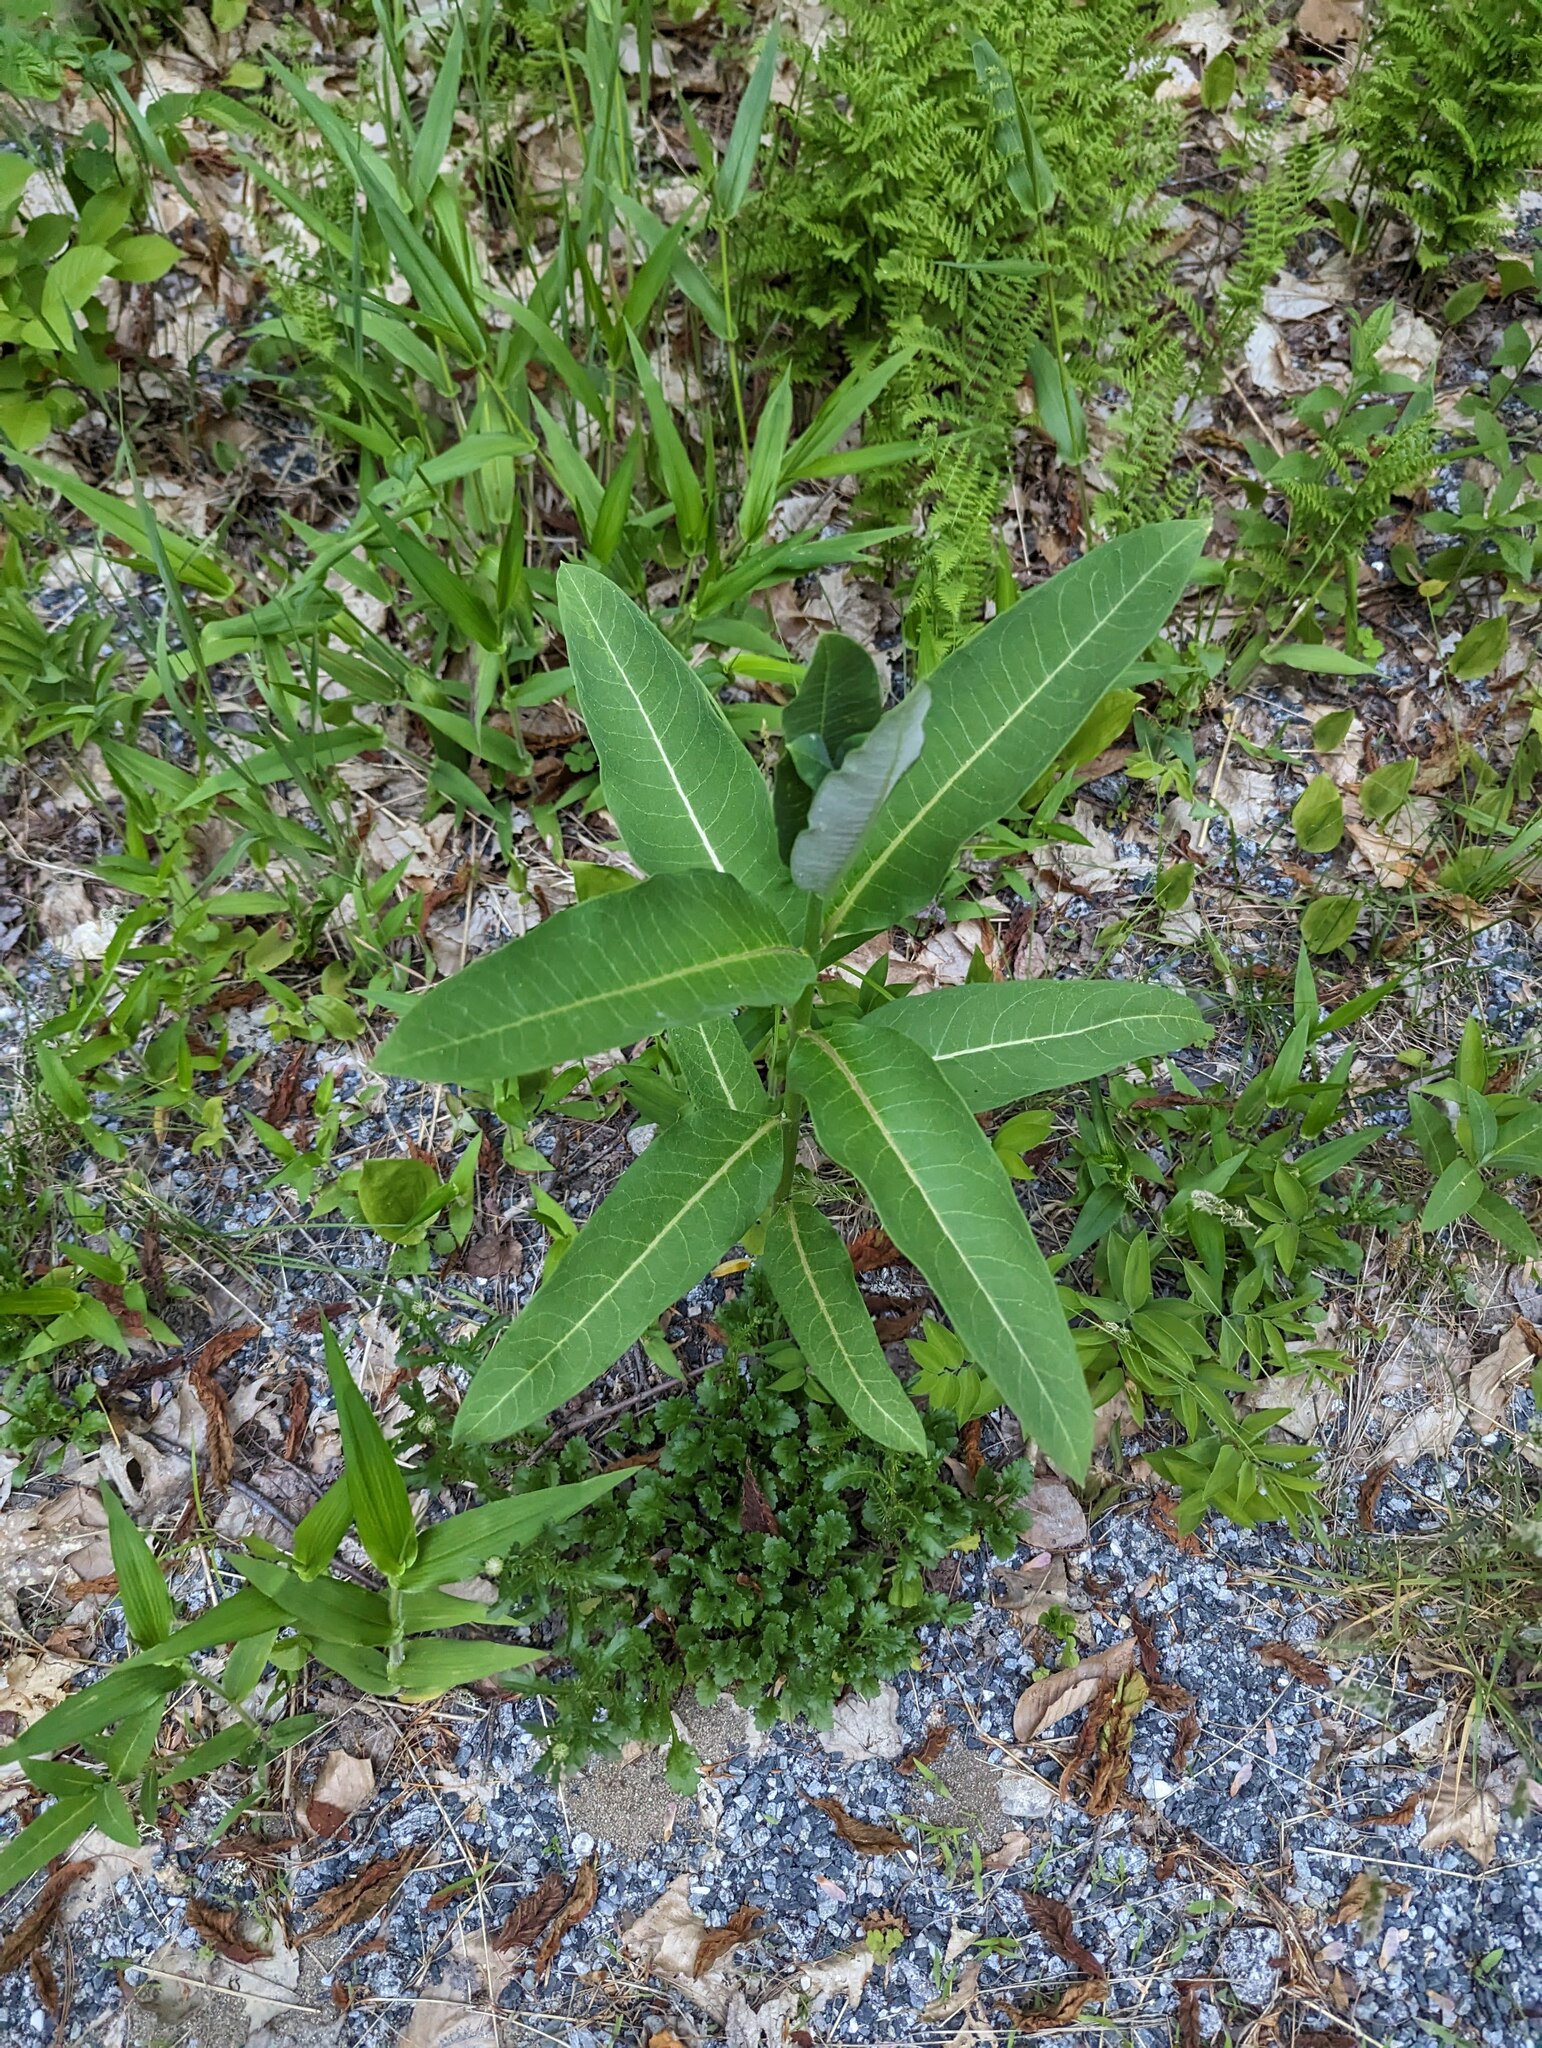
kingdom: Plantae
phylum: Tracheophyta
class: Magnoliopsida
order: Gentianales
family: Apocynaceae
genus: Asclepias
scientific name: Asclepias syriaca
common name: Common milkweed
